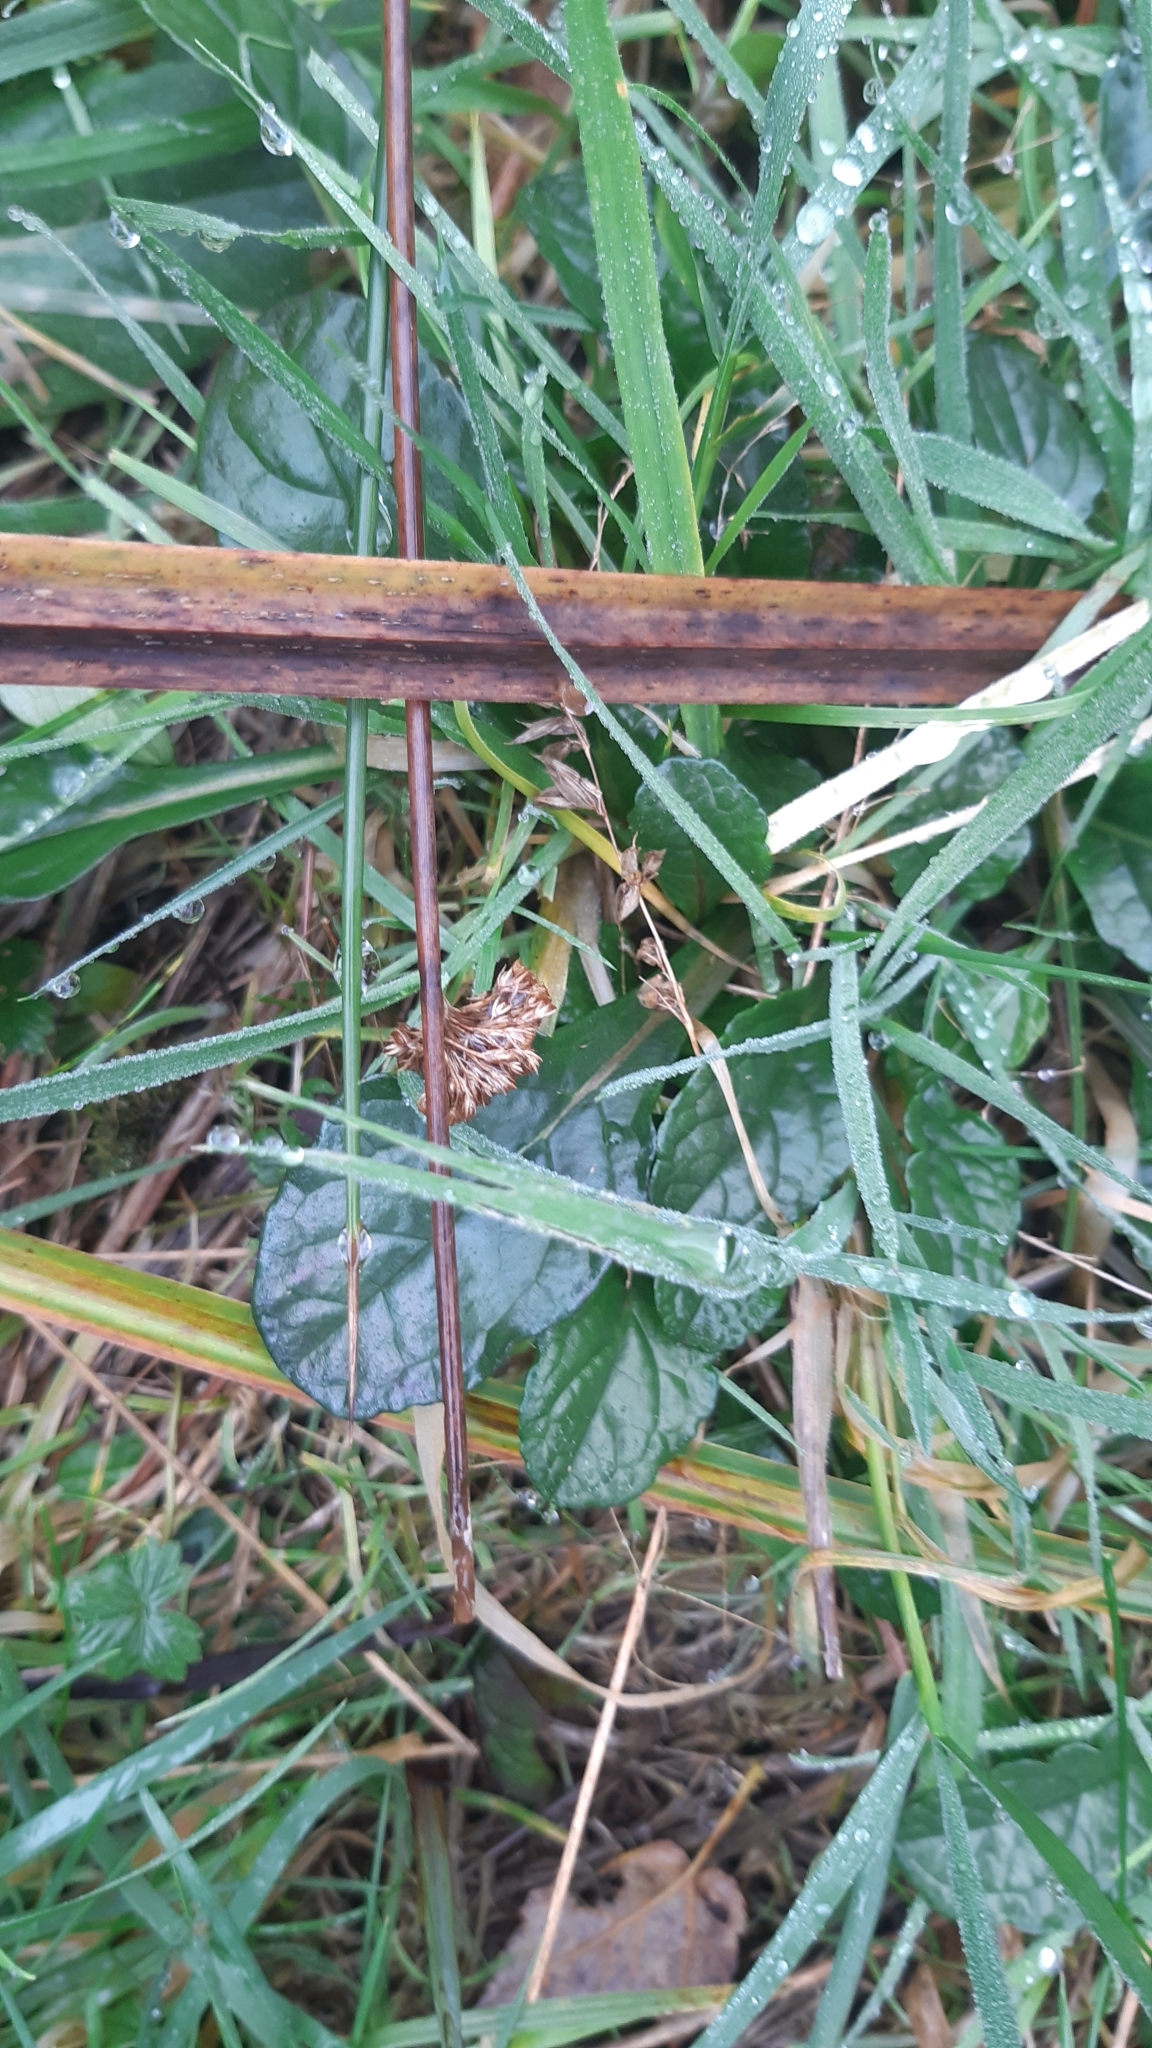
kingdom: Plantae
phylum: Tracheophyta
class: Magnoliopsida
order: Lamiales
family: Lamiaceae
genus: Ajuga
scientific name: Ajuga reptans
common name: Bugle
